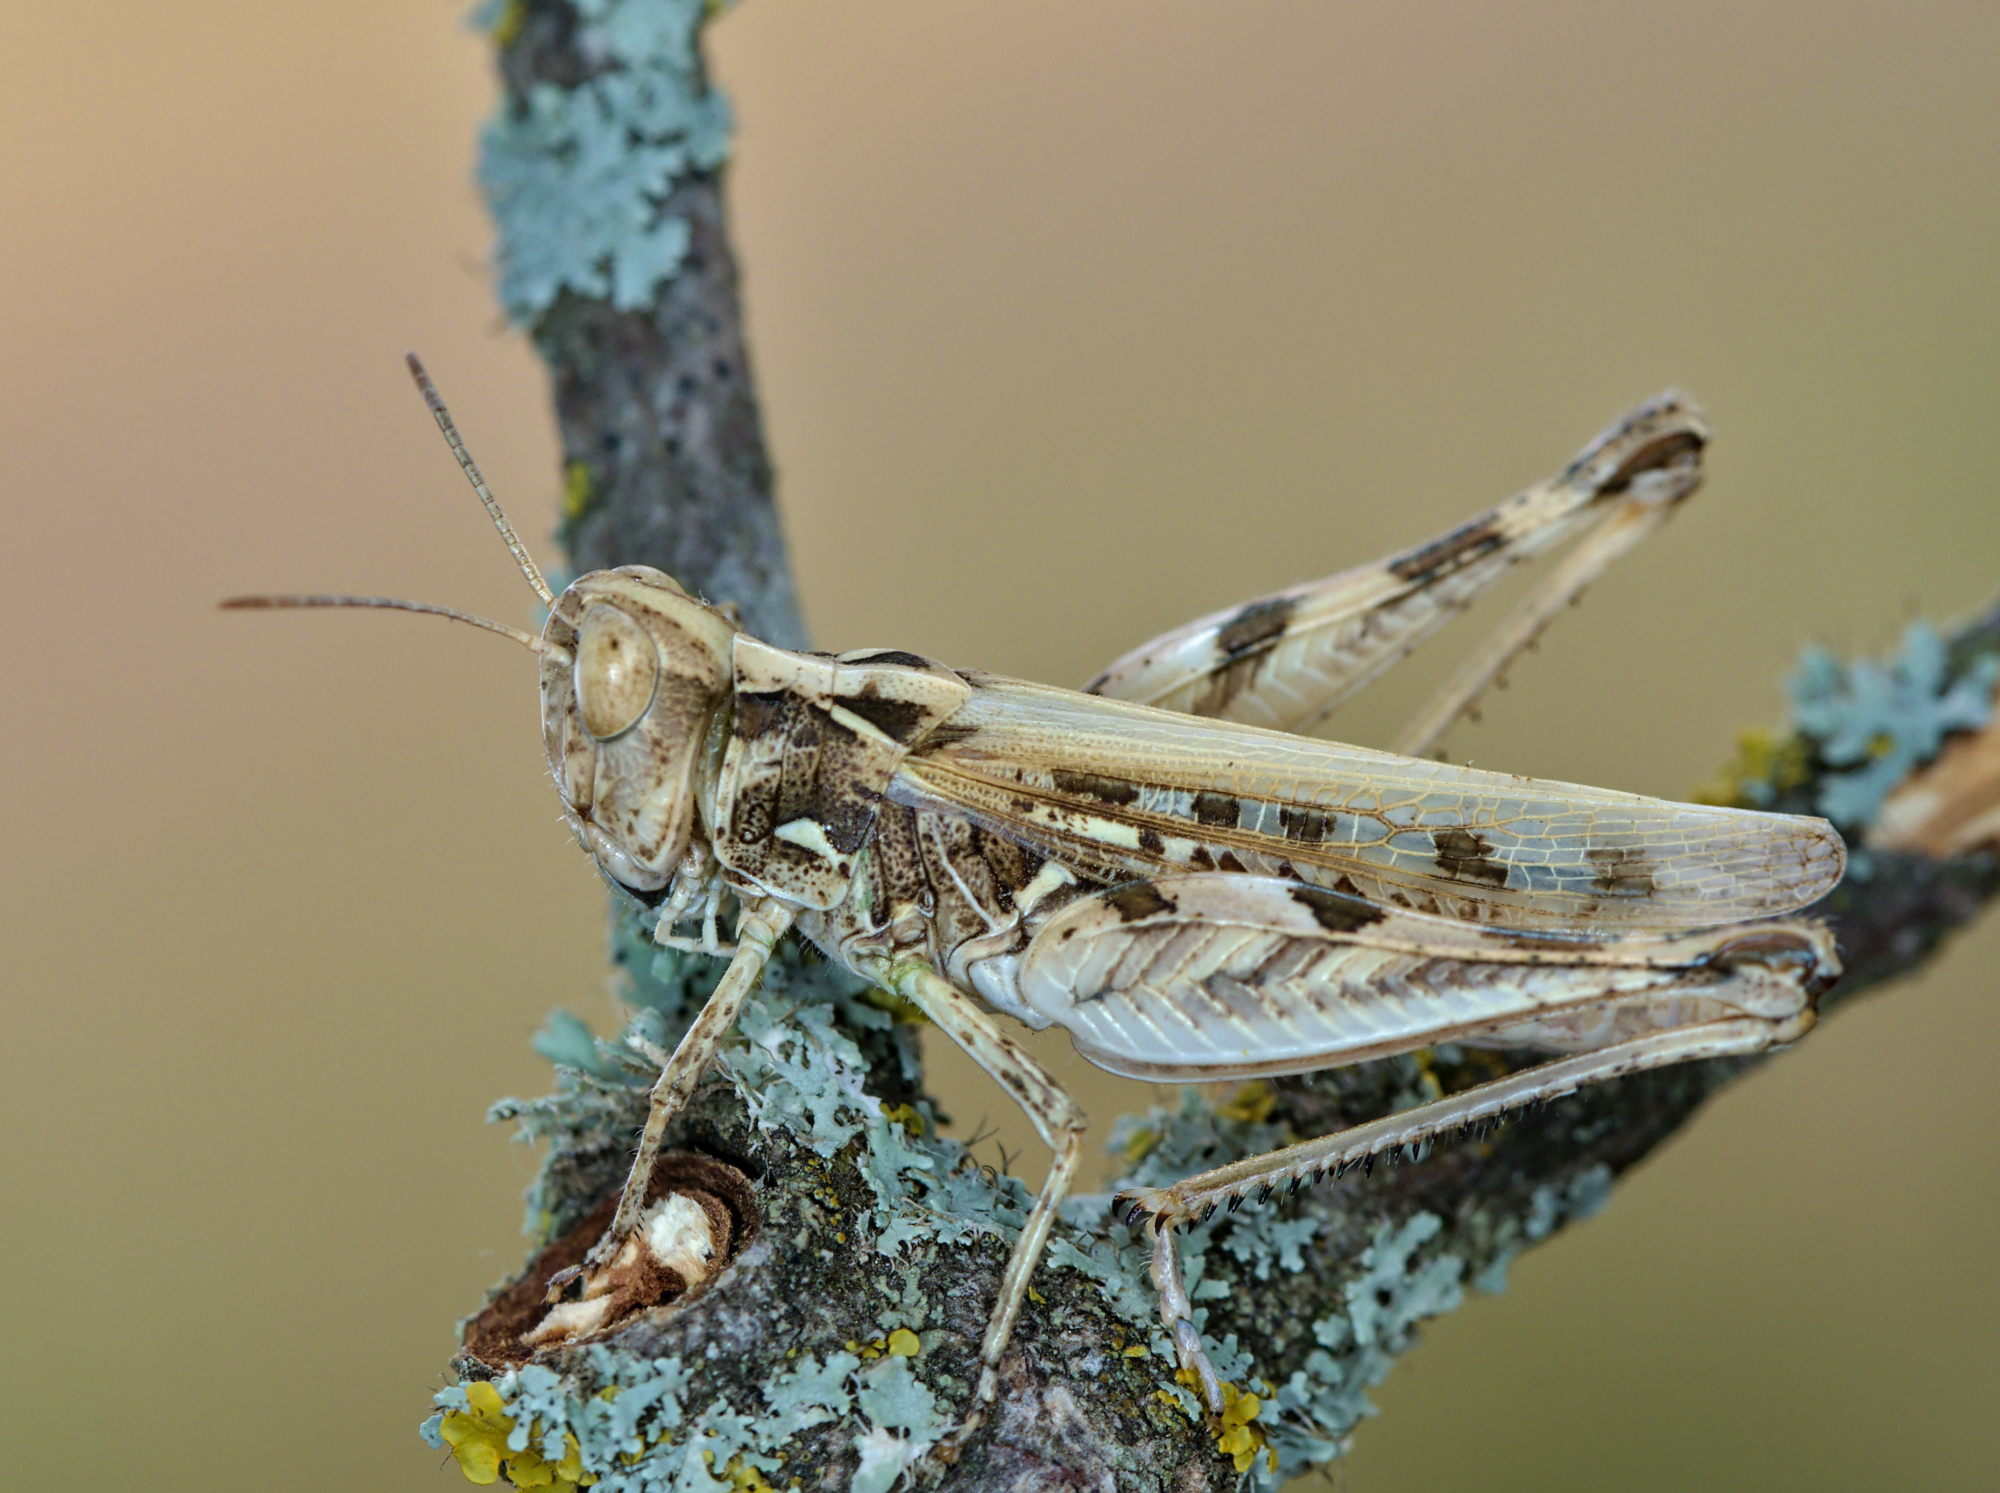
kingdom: Animalia
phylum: Arthropoda
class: Insecta
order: Orthoptera
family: Acrididae
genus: Dociostaurus
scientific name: Dociostaurus jagoi
